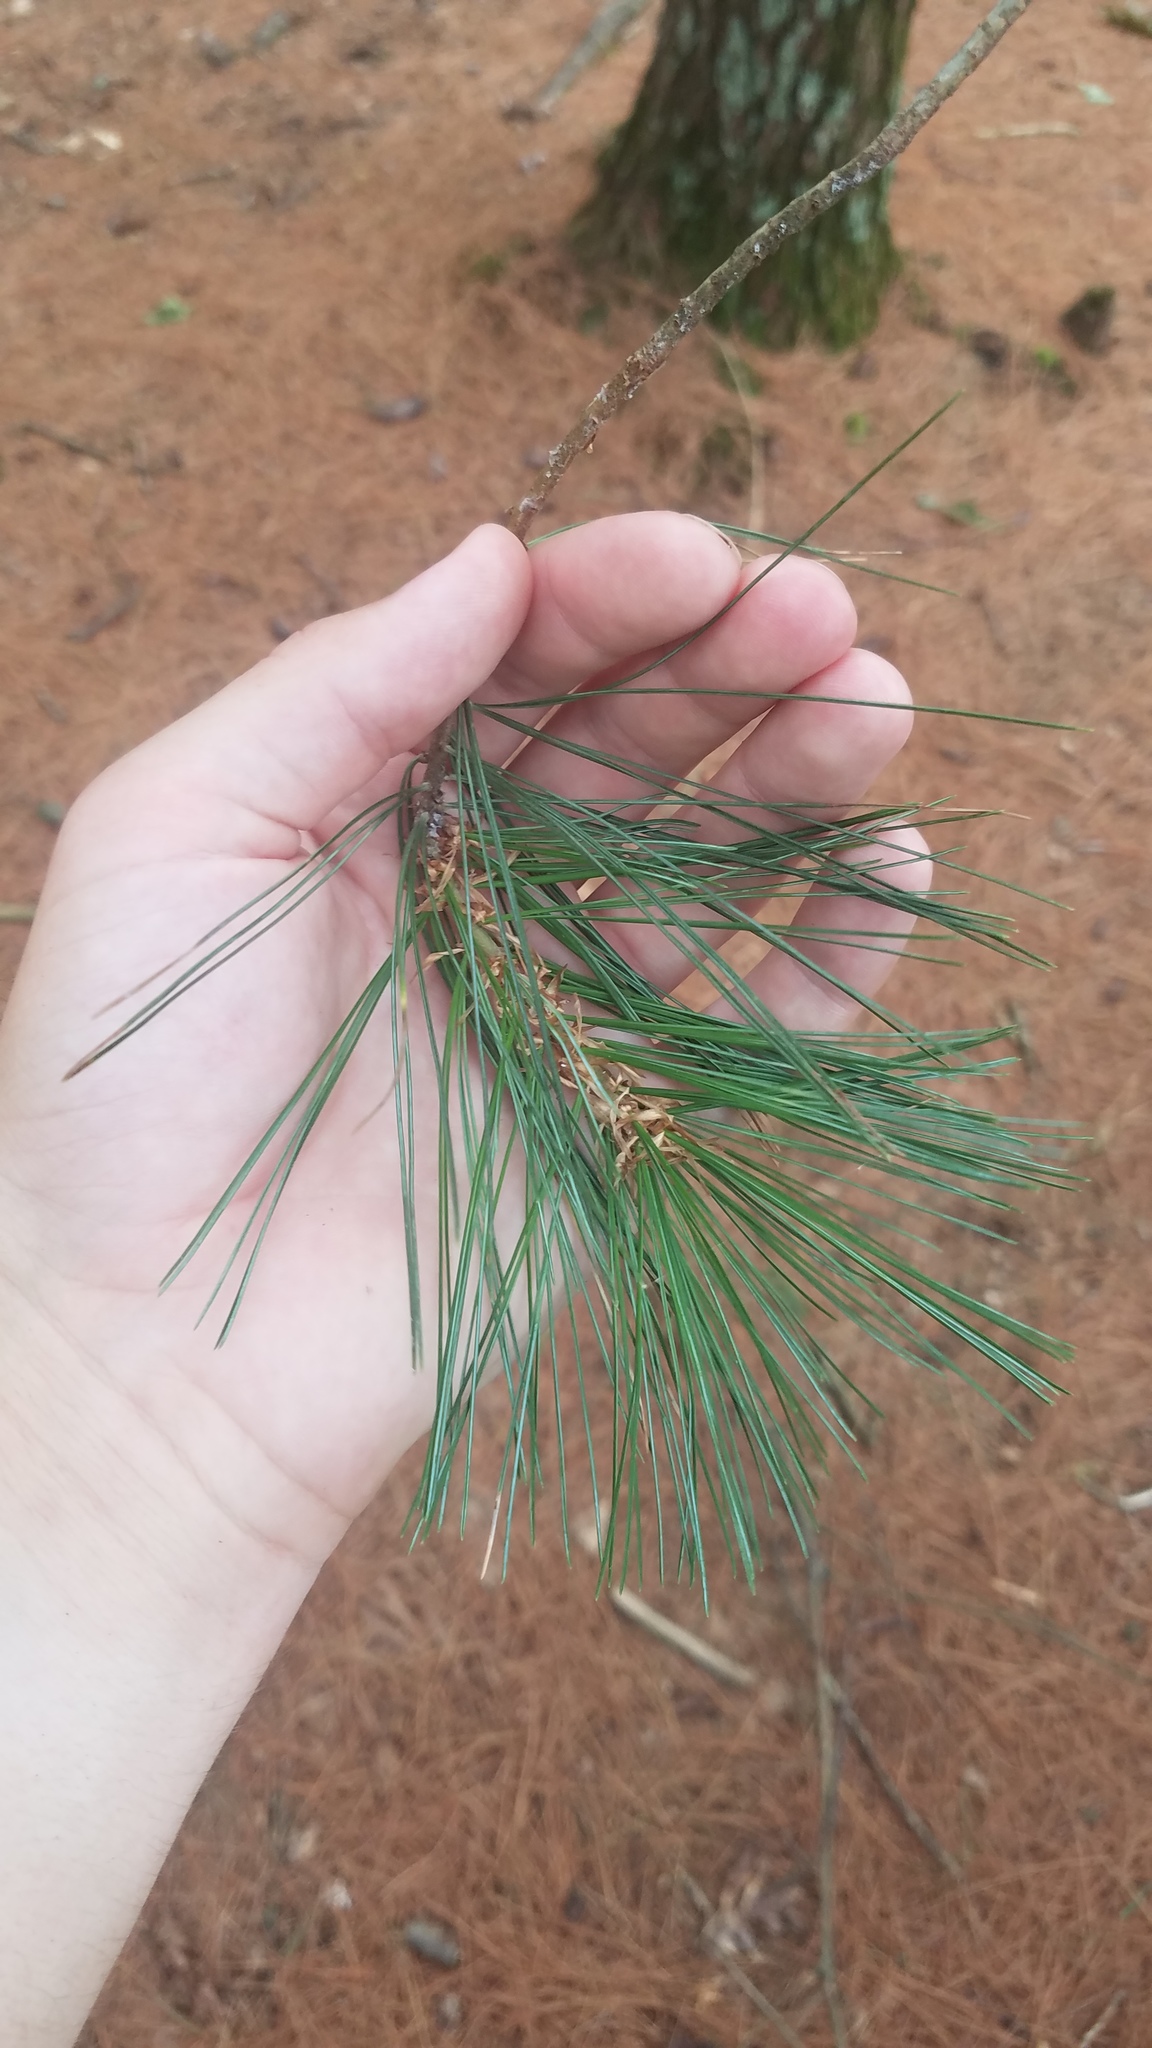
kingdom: Plantae
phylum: Tracheophyta
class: Pinopsida
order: Pinales
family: Pinaceae
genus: Pinus
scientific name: Pinus strobus
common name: Weymouth pine
